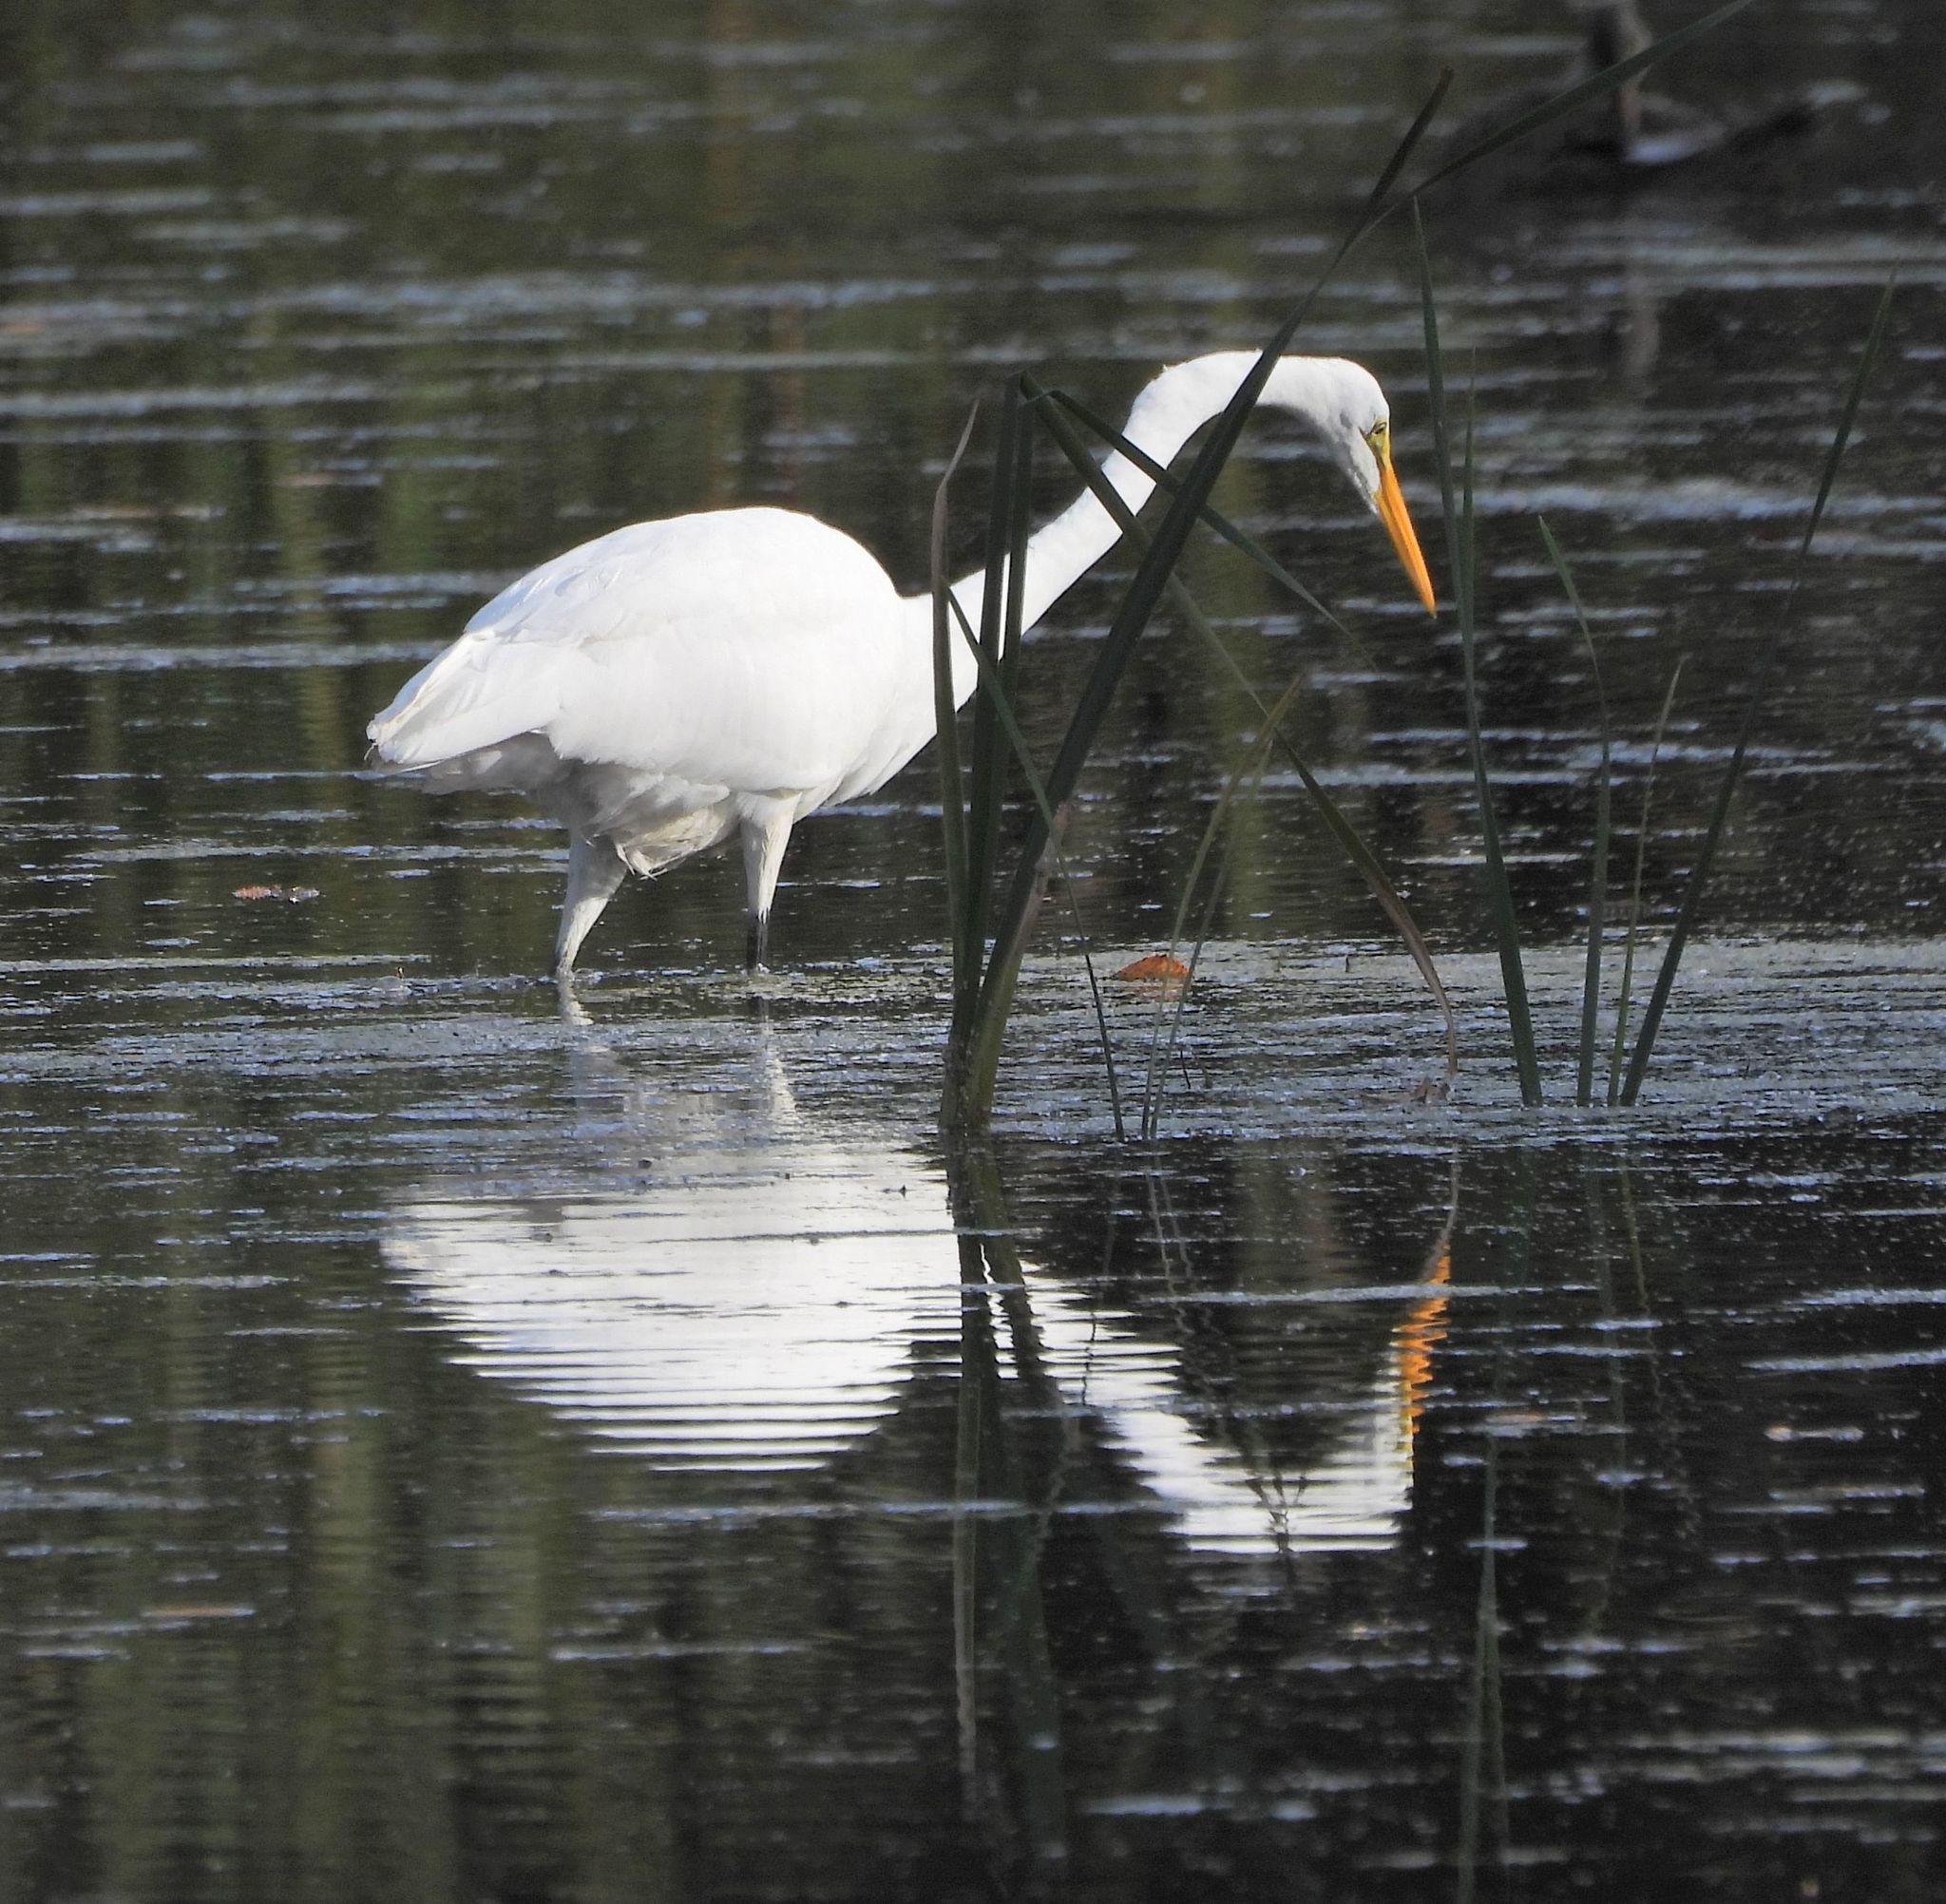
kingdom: Animalia
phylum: Chordata
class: Aves
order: Pelecaniformes
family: Ardeidae
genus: Ardea
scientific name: Ardea alba
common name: Great egret
